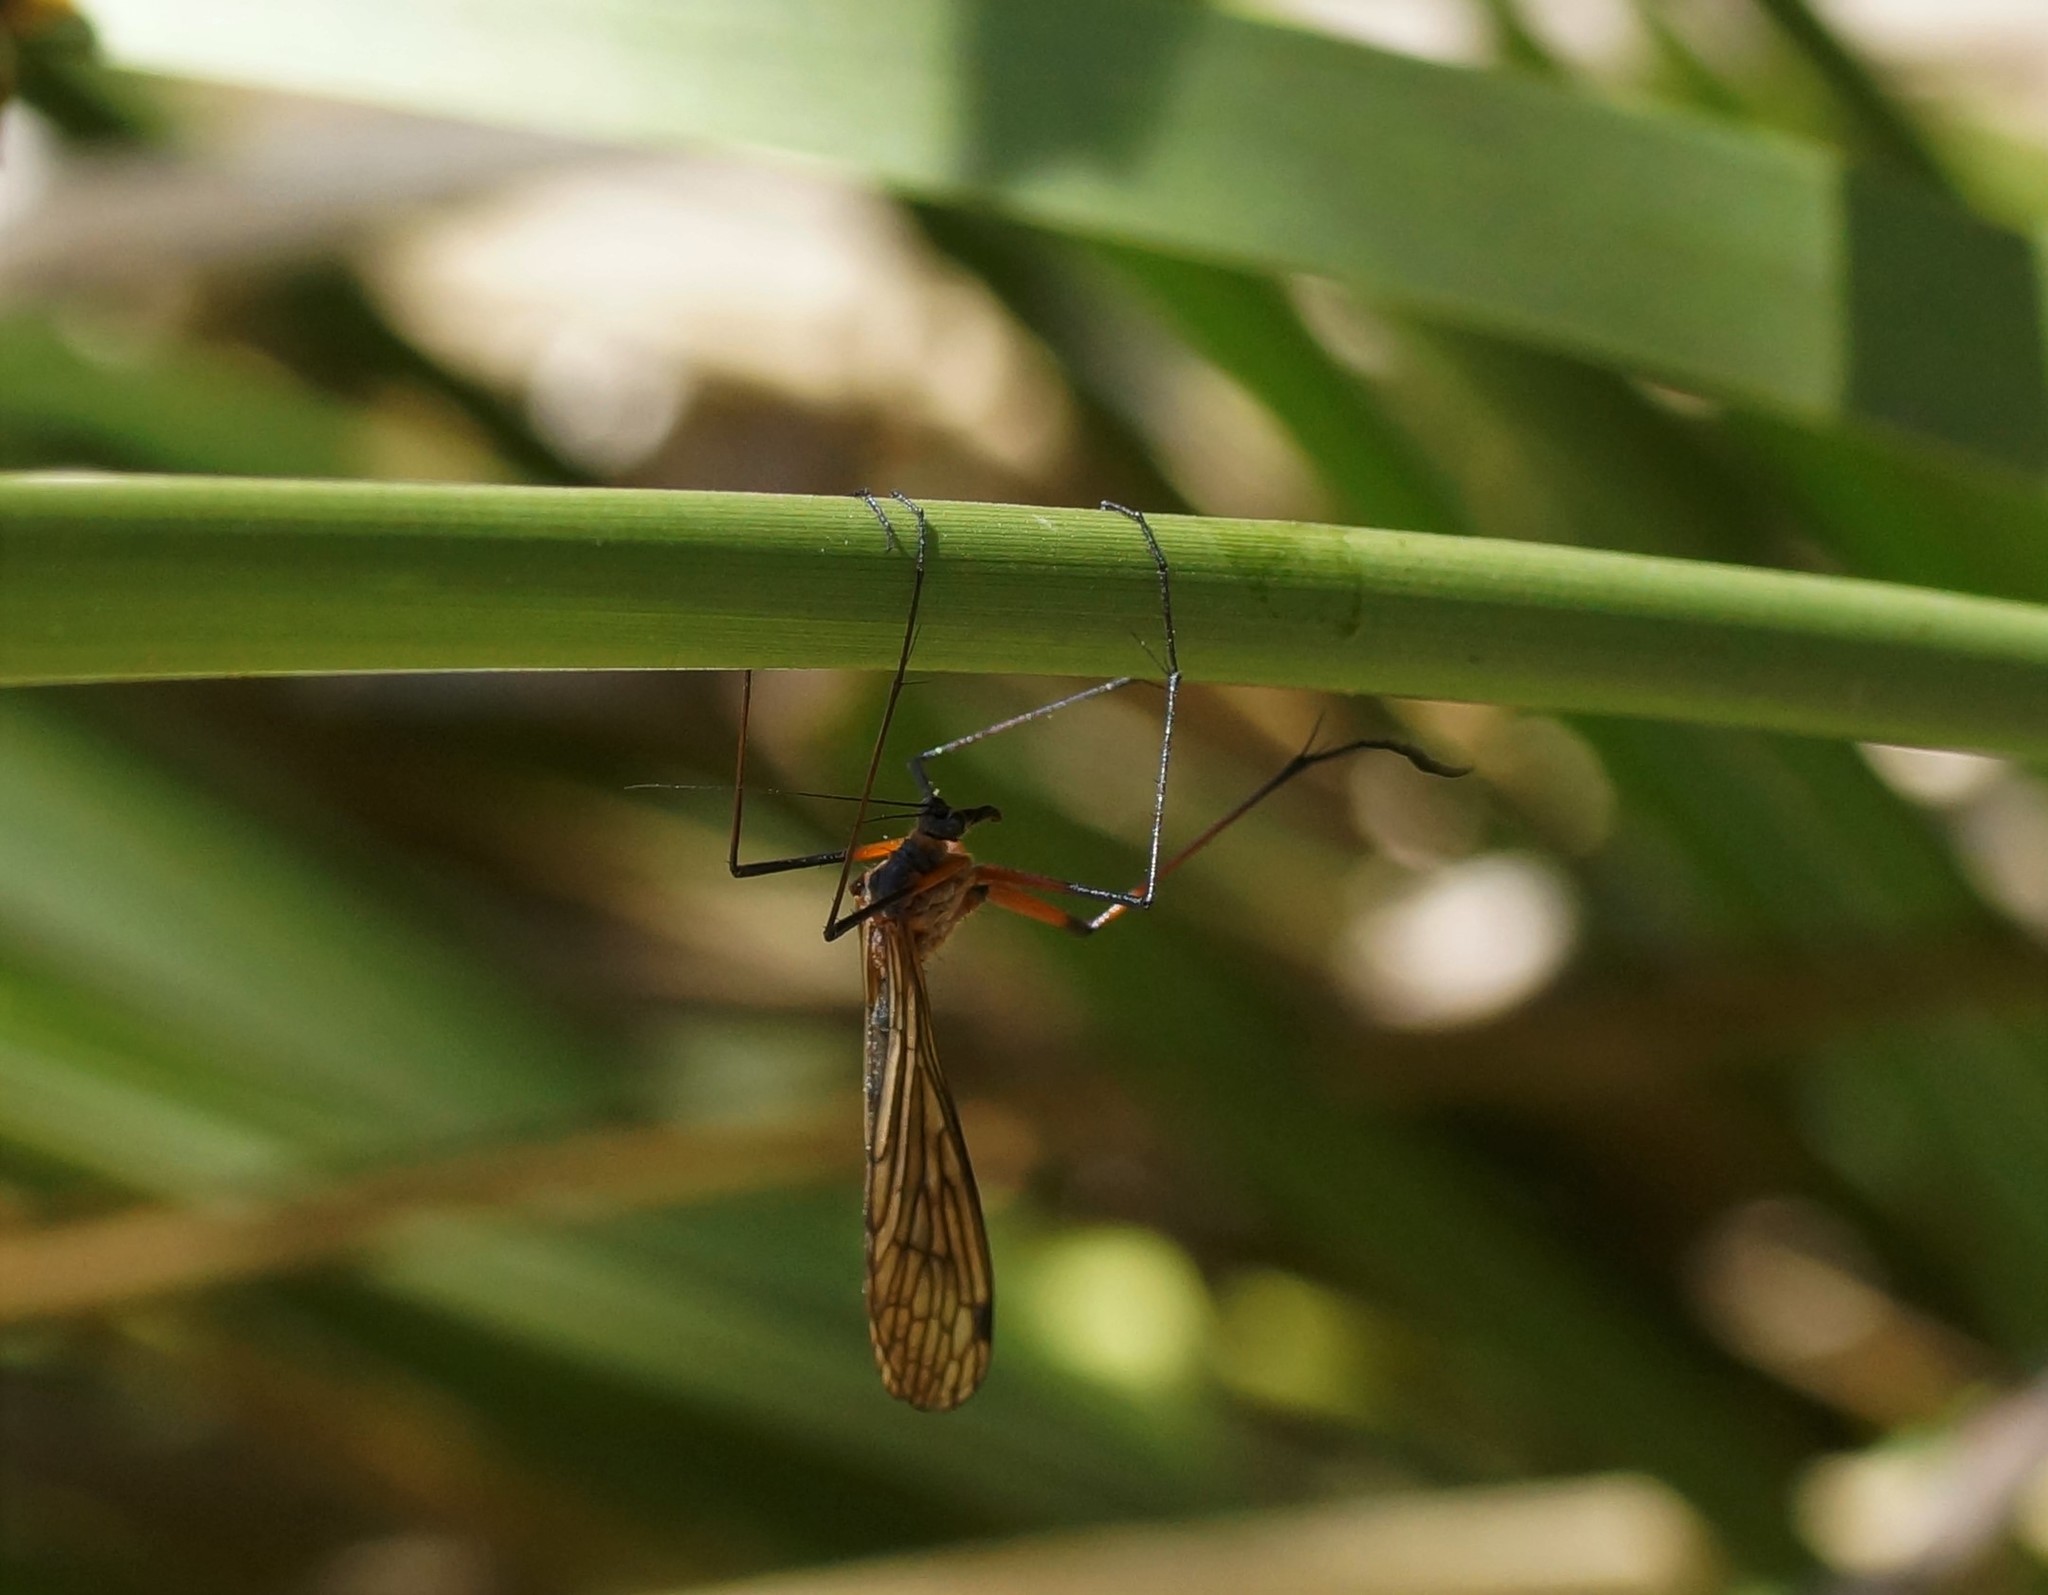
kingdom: Animalia
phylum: Arthropoda
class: Insecta
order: Mecoptera
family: Bittacidae
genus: Harpobittacus
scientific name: Harpobittacus nigriceps
